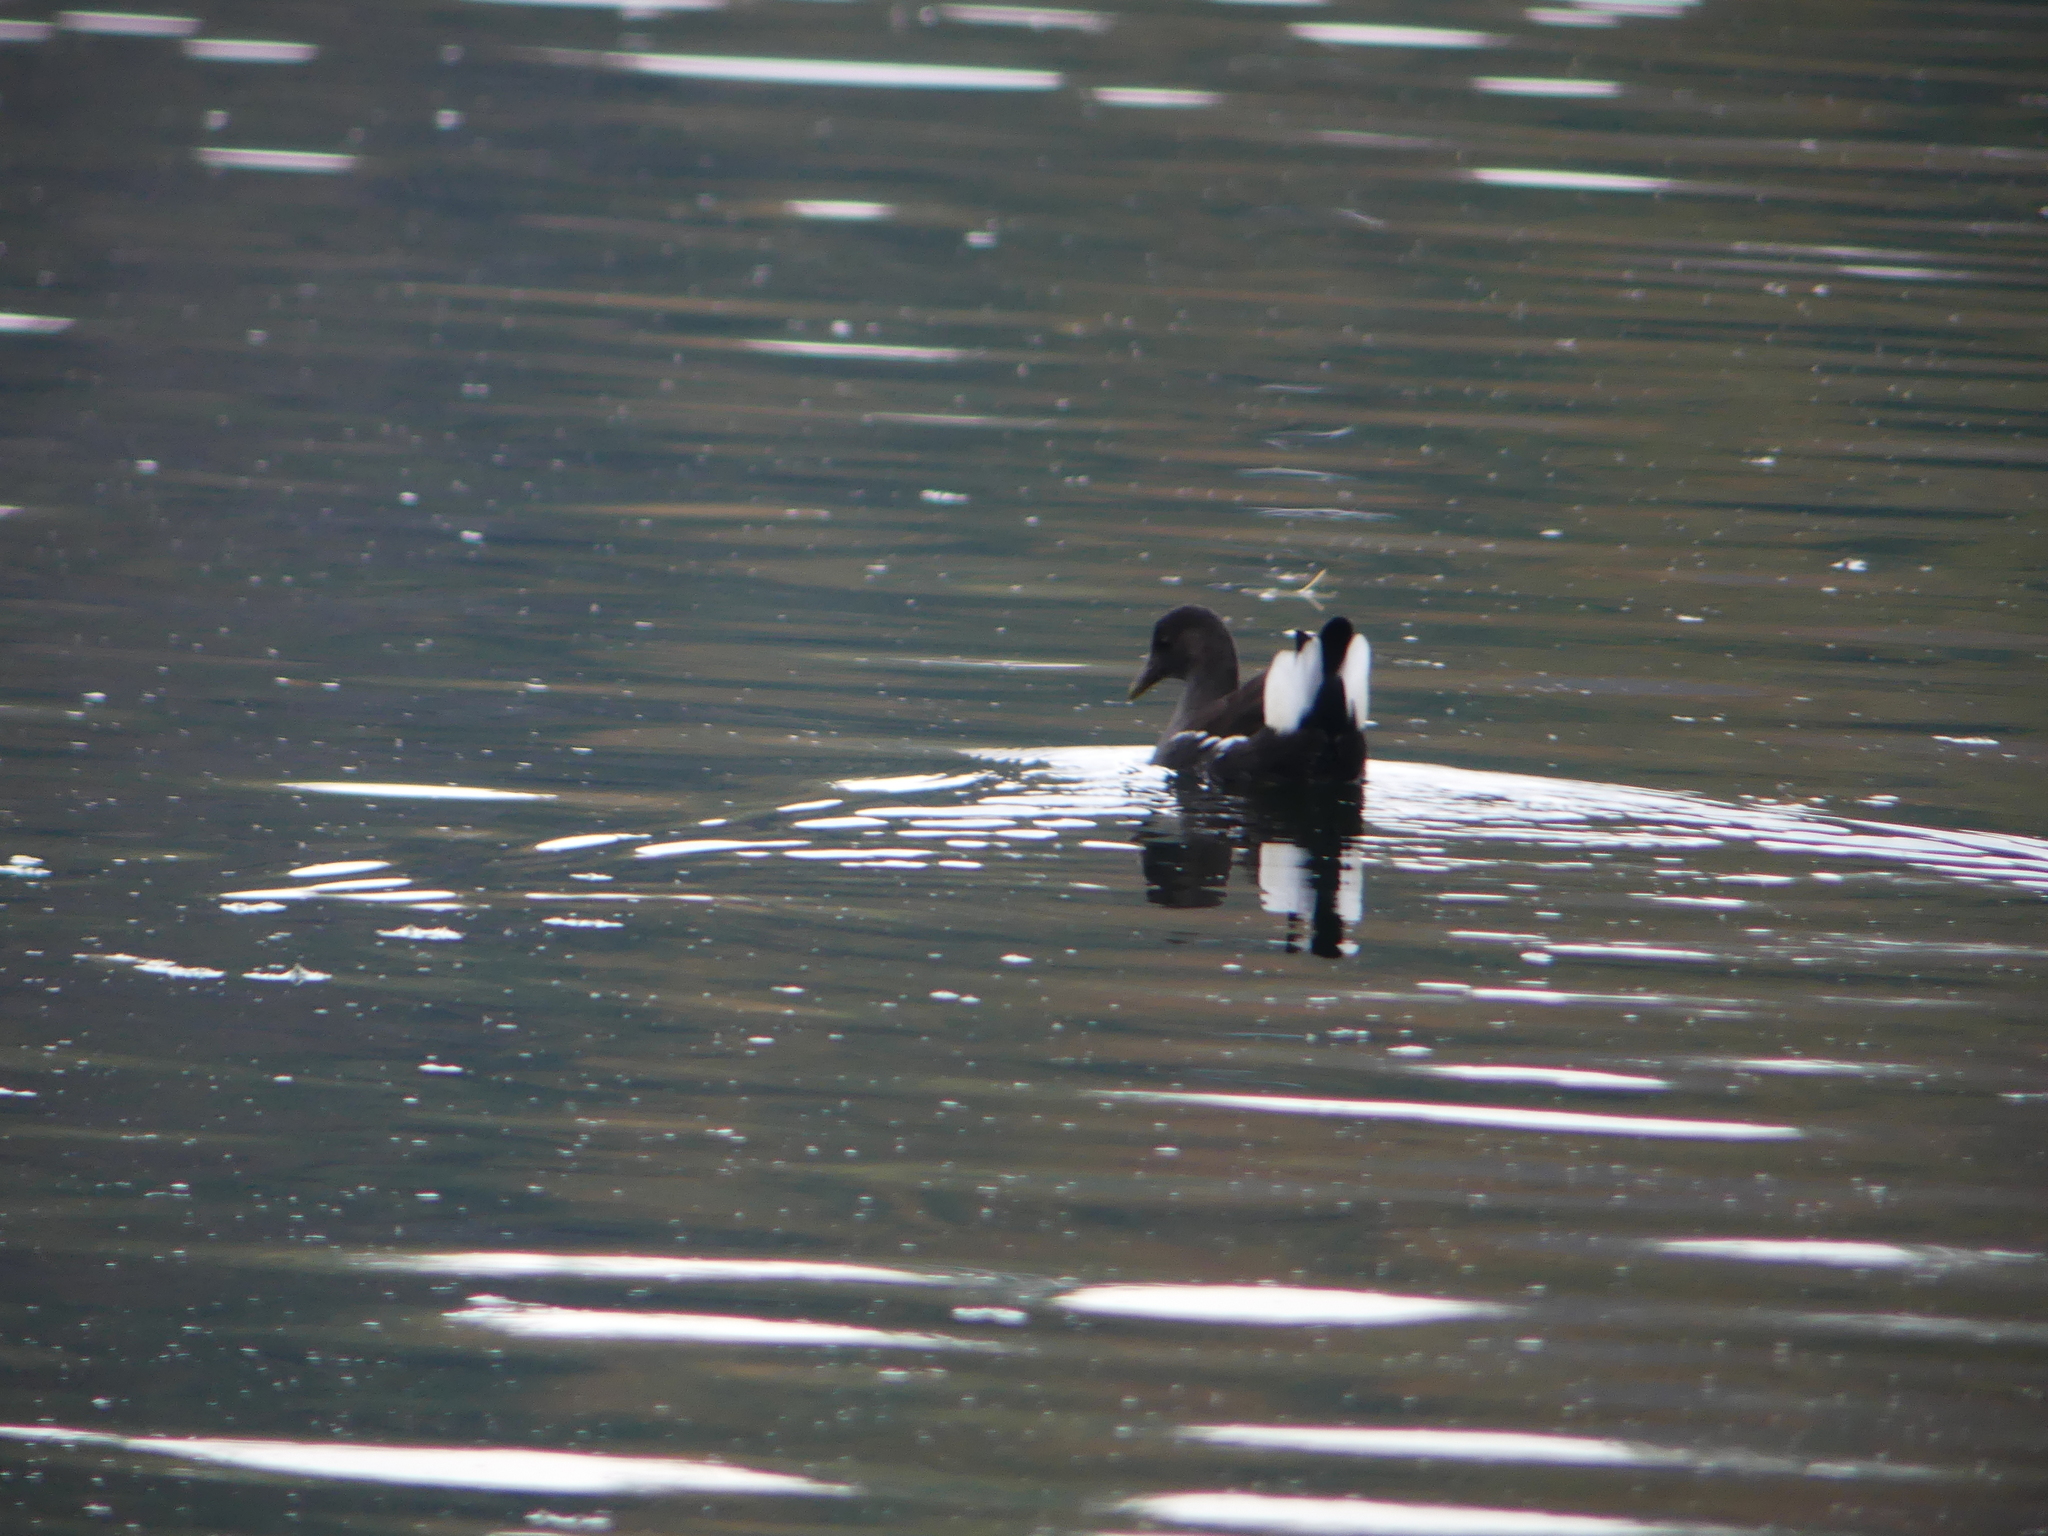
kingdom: Animalia
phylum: Chordata
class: Aves
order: Gruiformes
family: Rallidae
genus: Gallinula
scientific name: Gallinula chloropus
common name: Common moorhen
